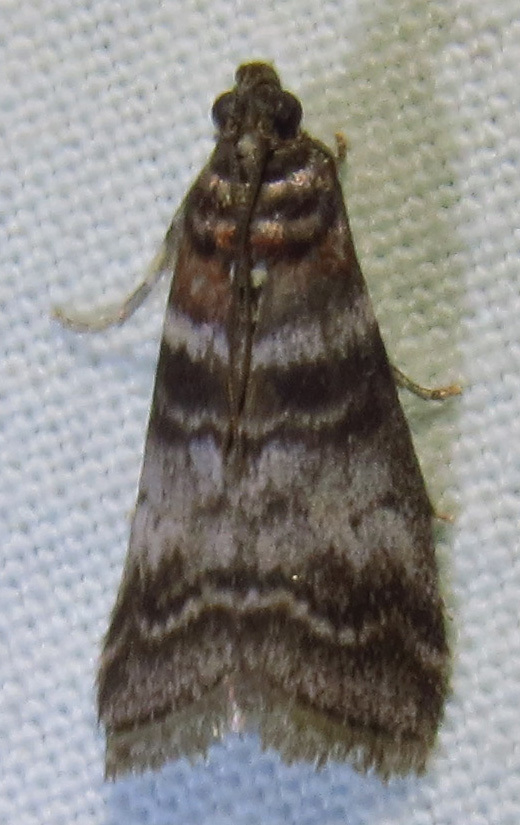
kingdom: Animalia
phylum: Arthropoda
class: Insecta
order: Lepidoptera
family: Pyralidae
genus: Sciota
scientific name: Sciota uvinella
